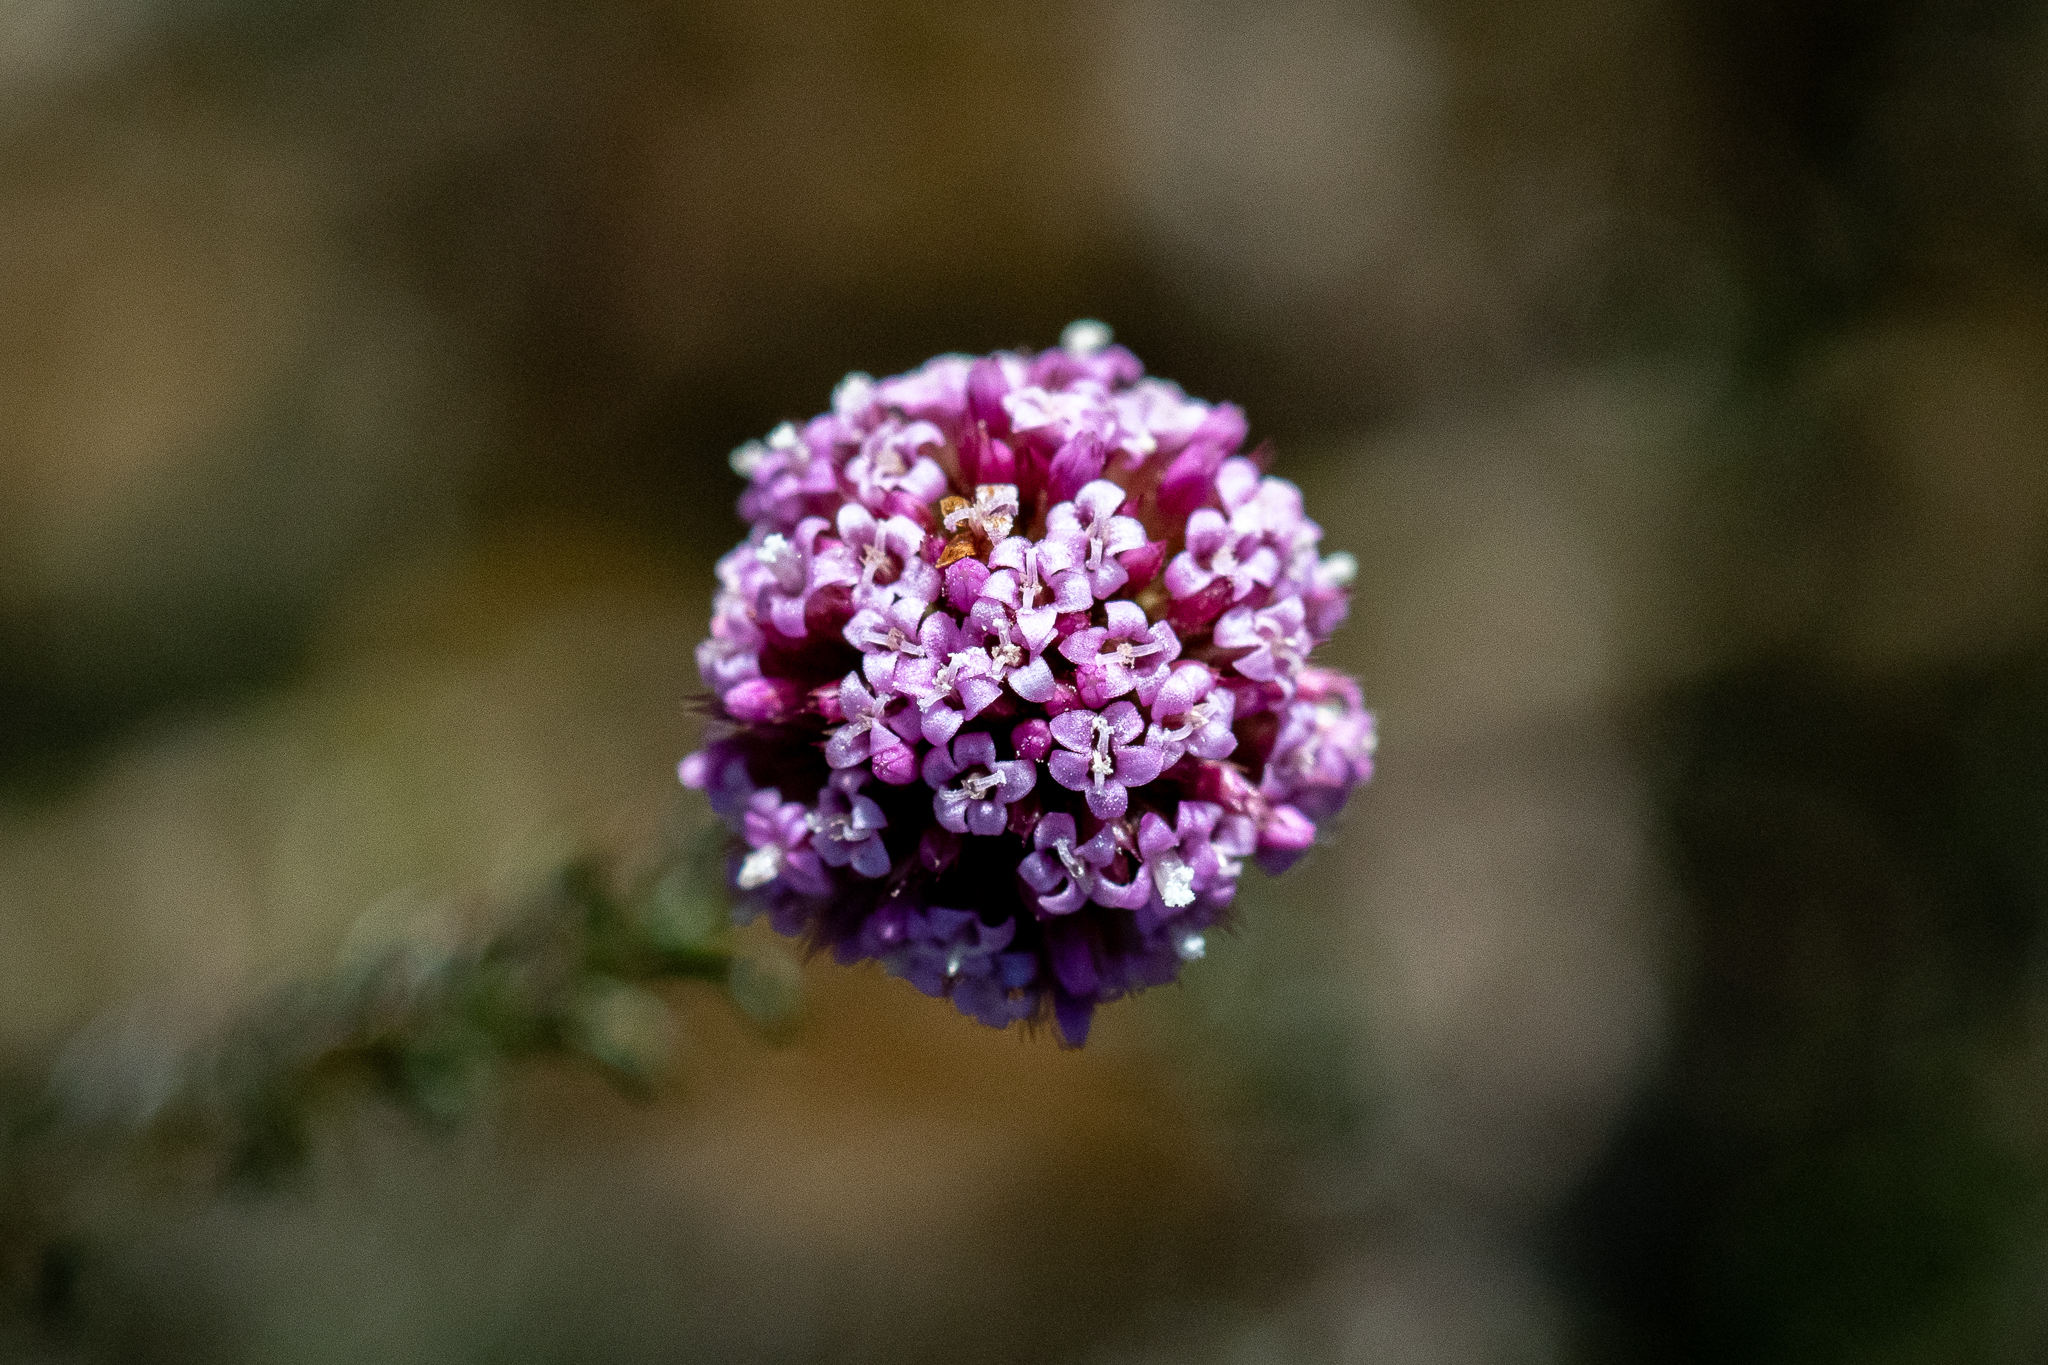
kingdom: Plantae
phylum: Tracheophyta
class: Magnoliopsida
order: Asterales
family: Asteraceae
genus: Stoebe
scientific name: Stoebe capitata
